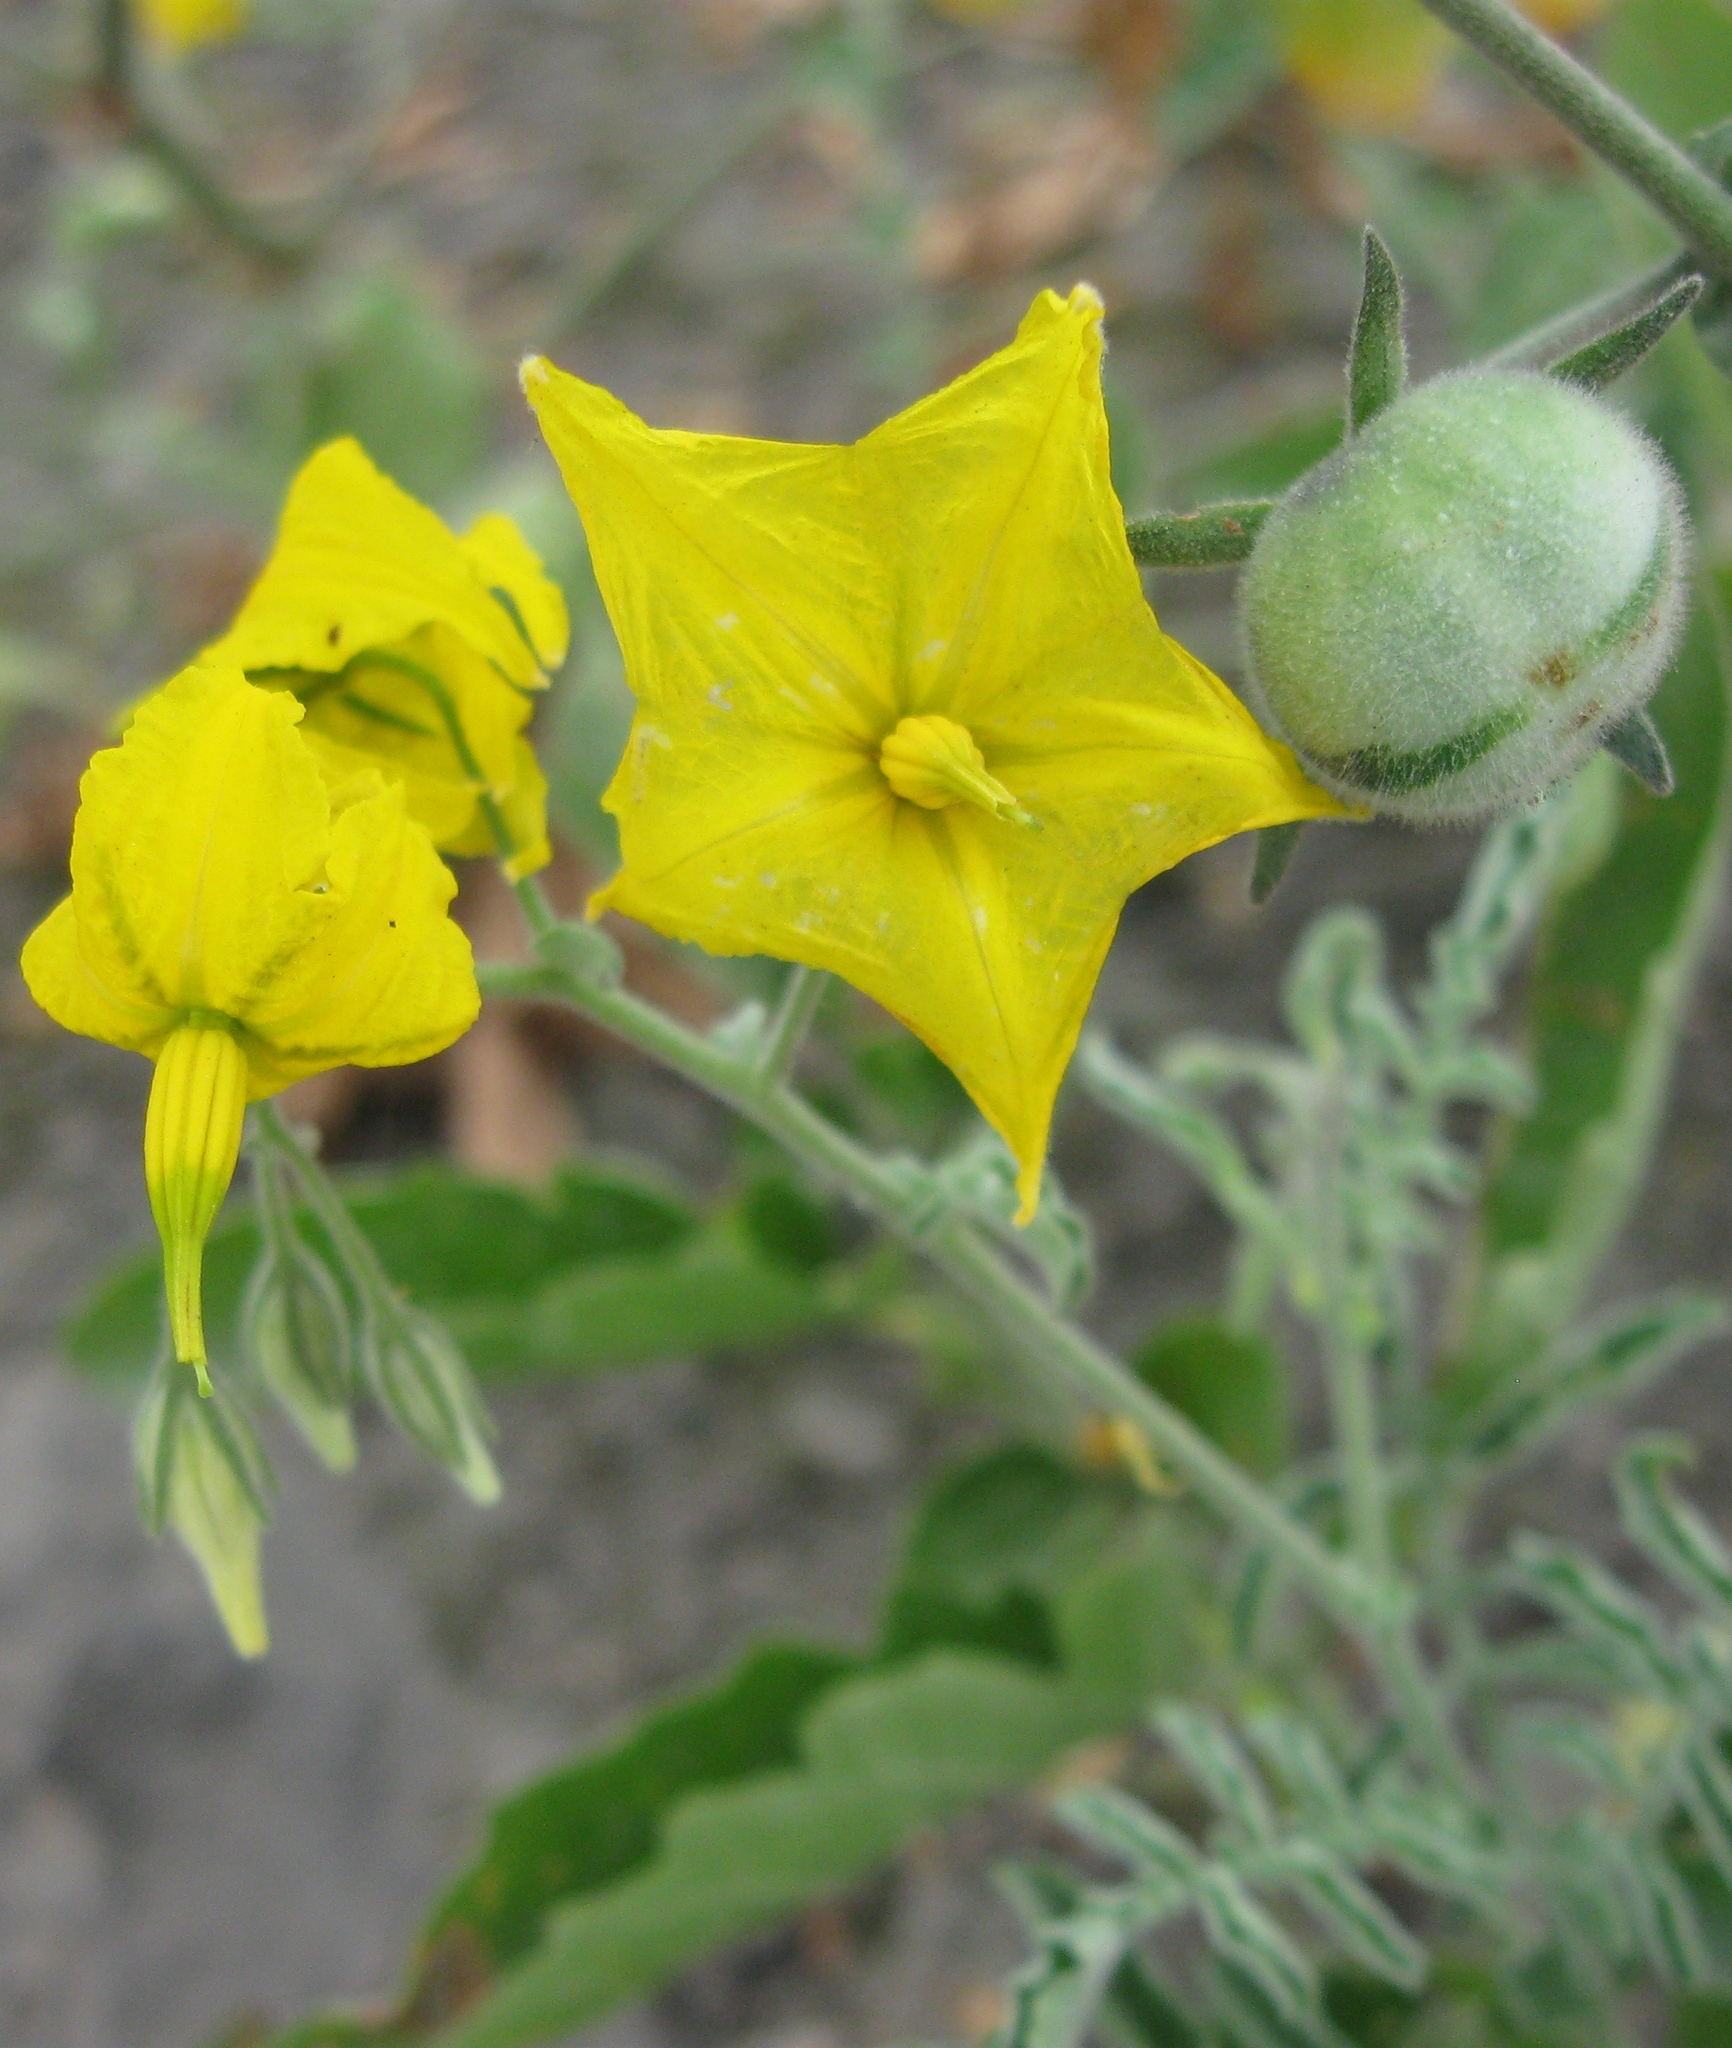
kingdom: Plantae
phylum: Tracheophyta
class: Magnoliopsida
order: Solanales
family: Solanaceae
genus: Solanum
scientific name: Solanum peruvianum
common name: Peruvian nightshade
